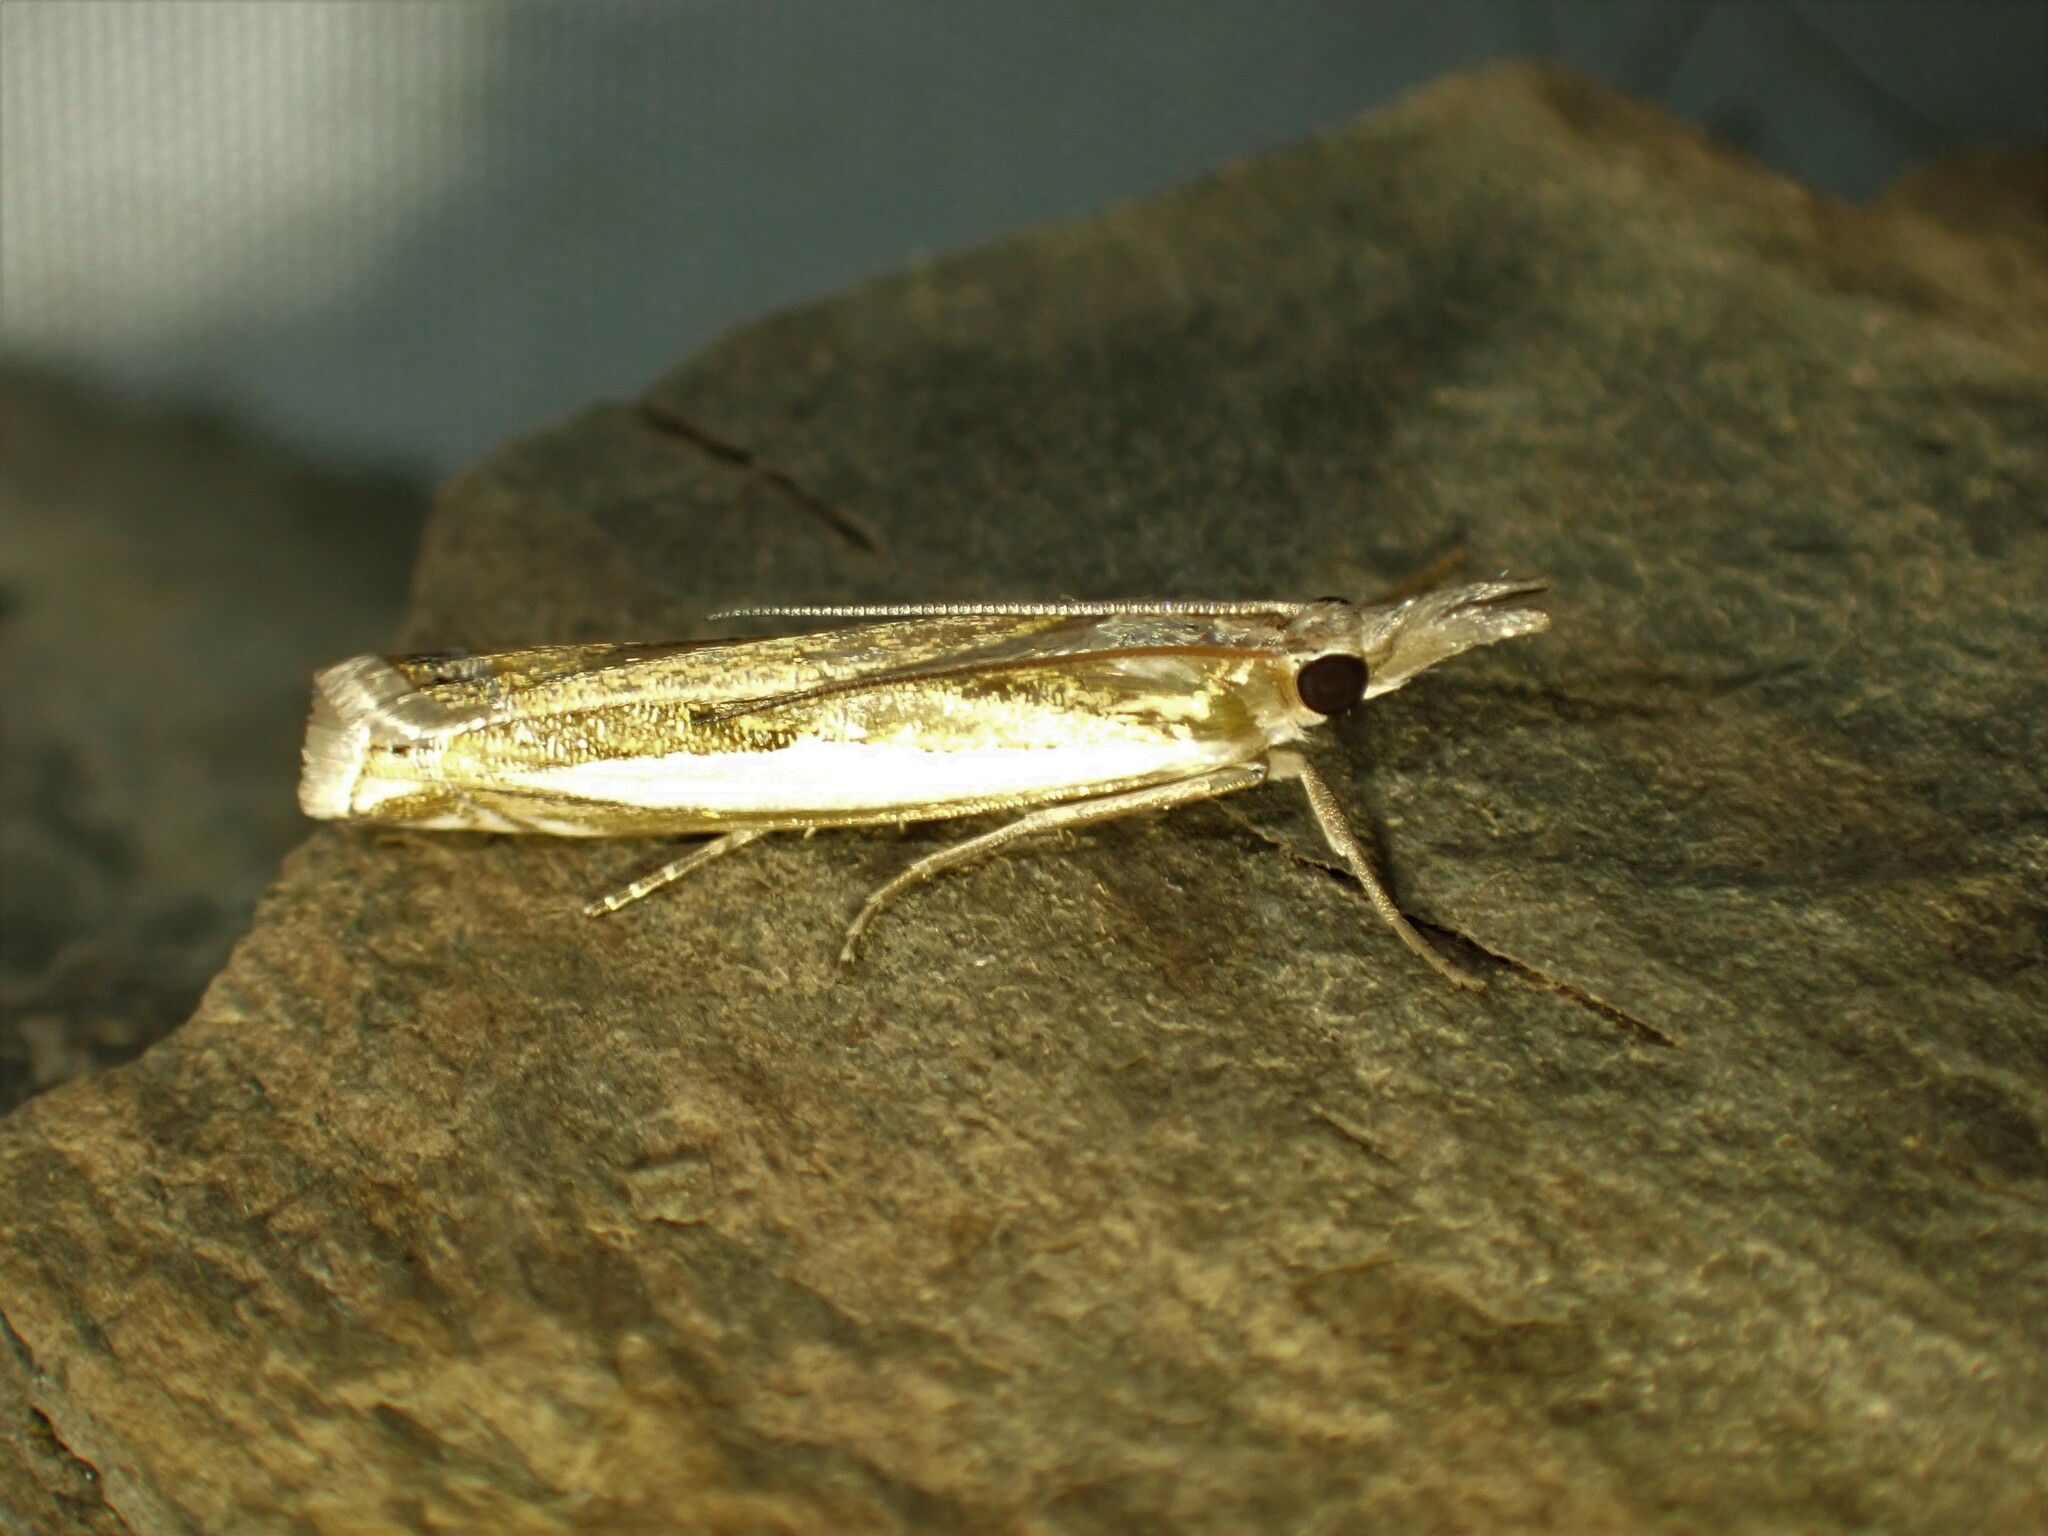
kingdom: Animalia
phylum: Arthropoda
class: Insecta
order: Lepidoptera
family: Crambidae
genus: Crambus
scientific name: Crambus praefectellus
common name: Common grass-veneer
